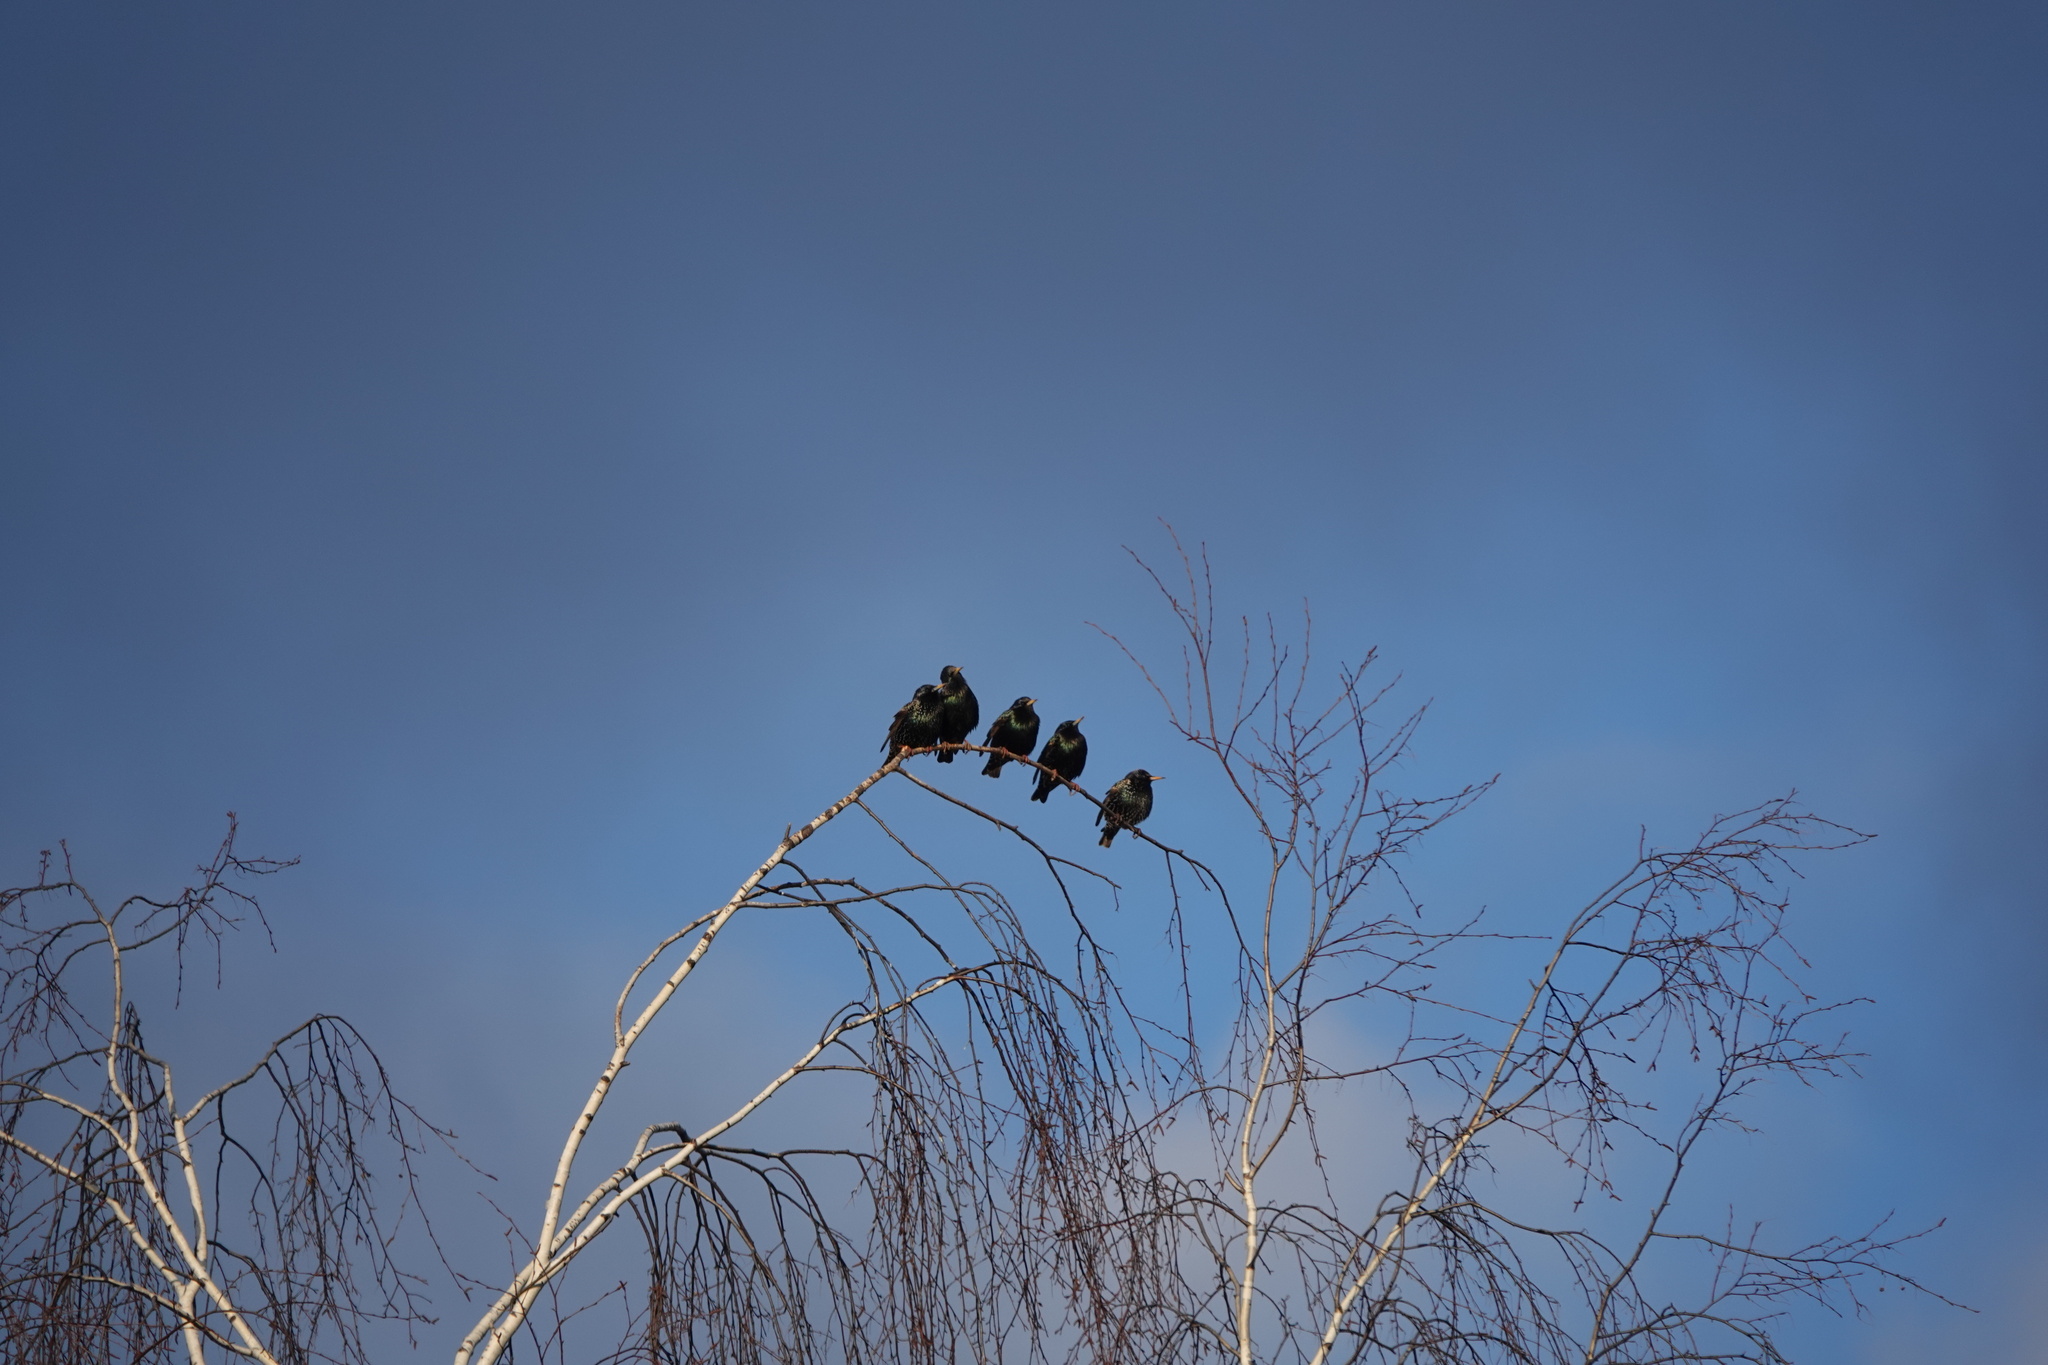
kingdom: Animalia
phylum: Chordata
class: Aves
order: Passeriformes
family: Sturnidae
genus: Sturnus
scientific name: Sturnus vulgaris
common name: Common starling
